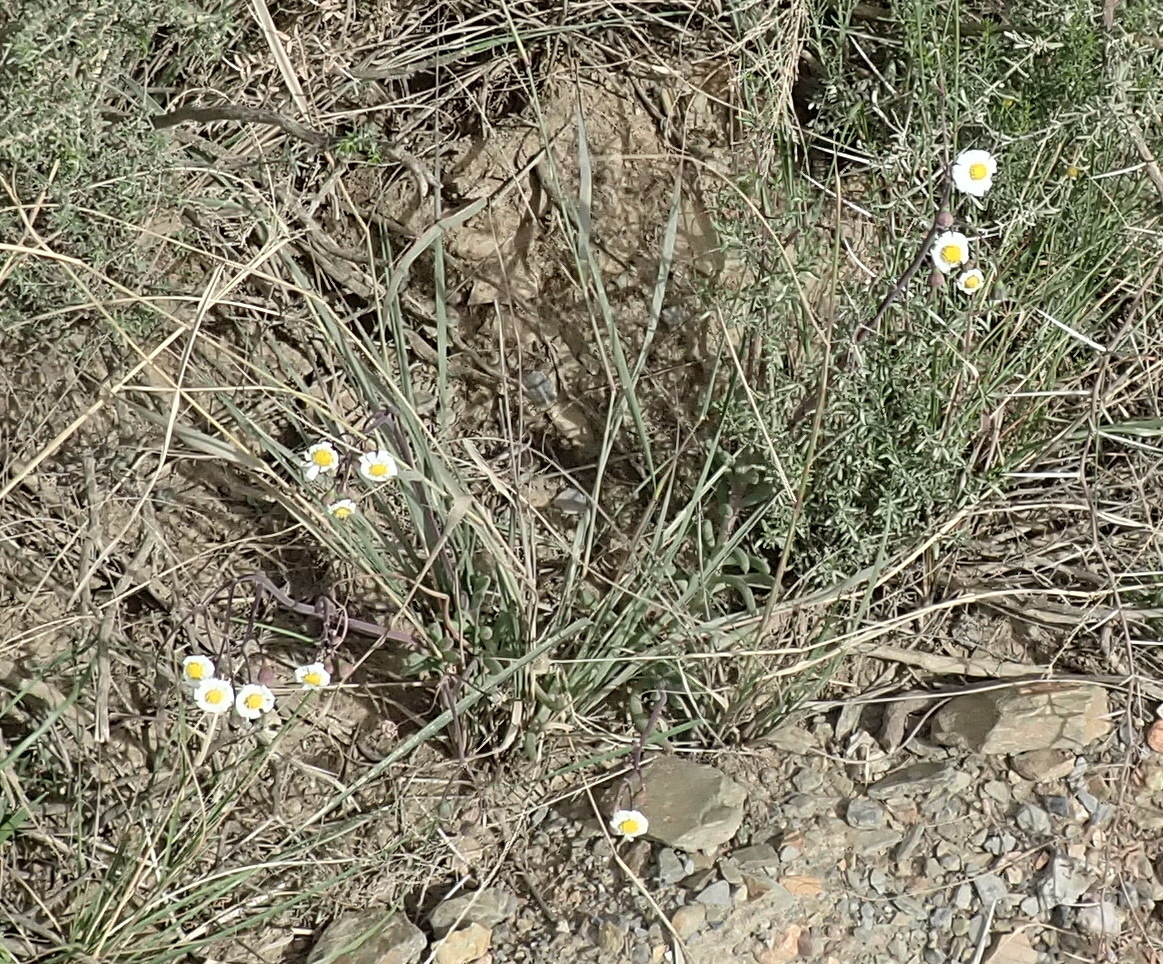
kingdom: Plantae
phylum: Tracheophyta
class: Magnoliopsida
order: Asterales
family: Asteraceae
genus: Crassothonna
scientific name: Crassothonna alba
